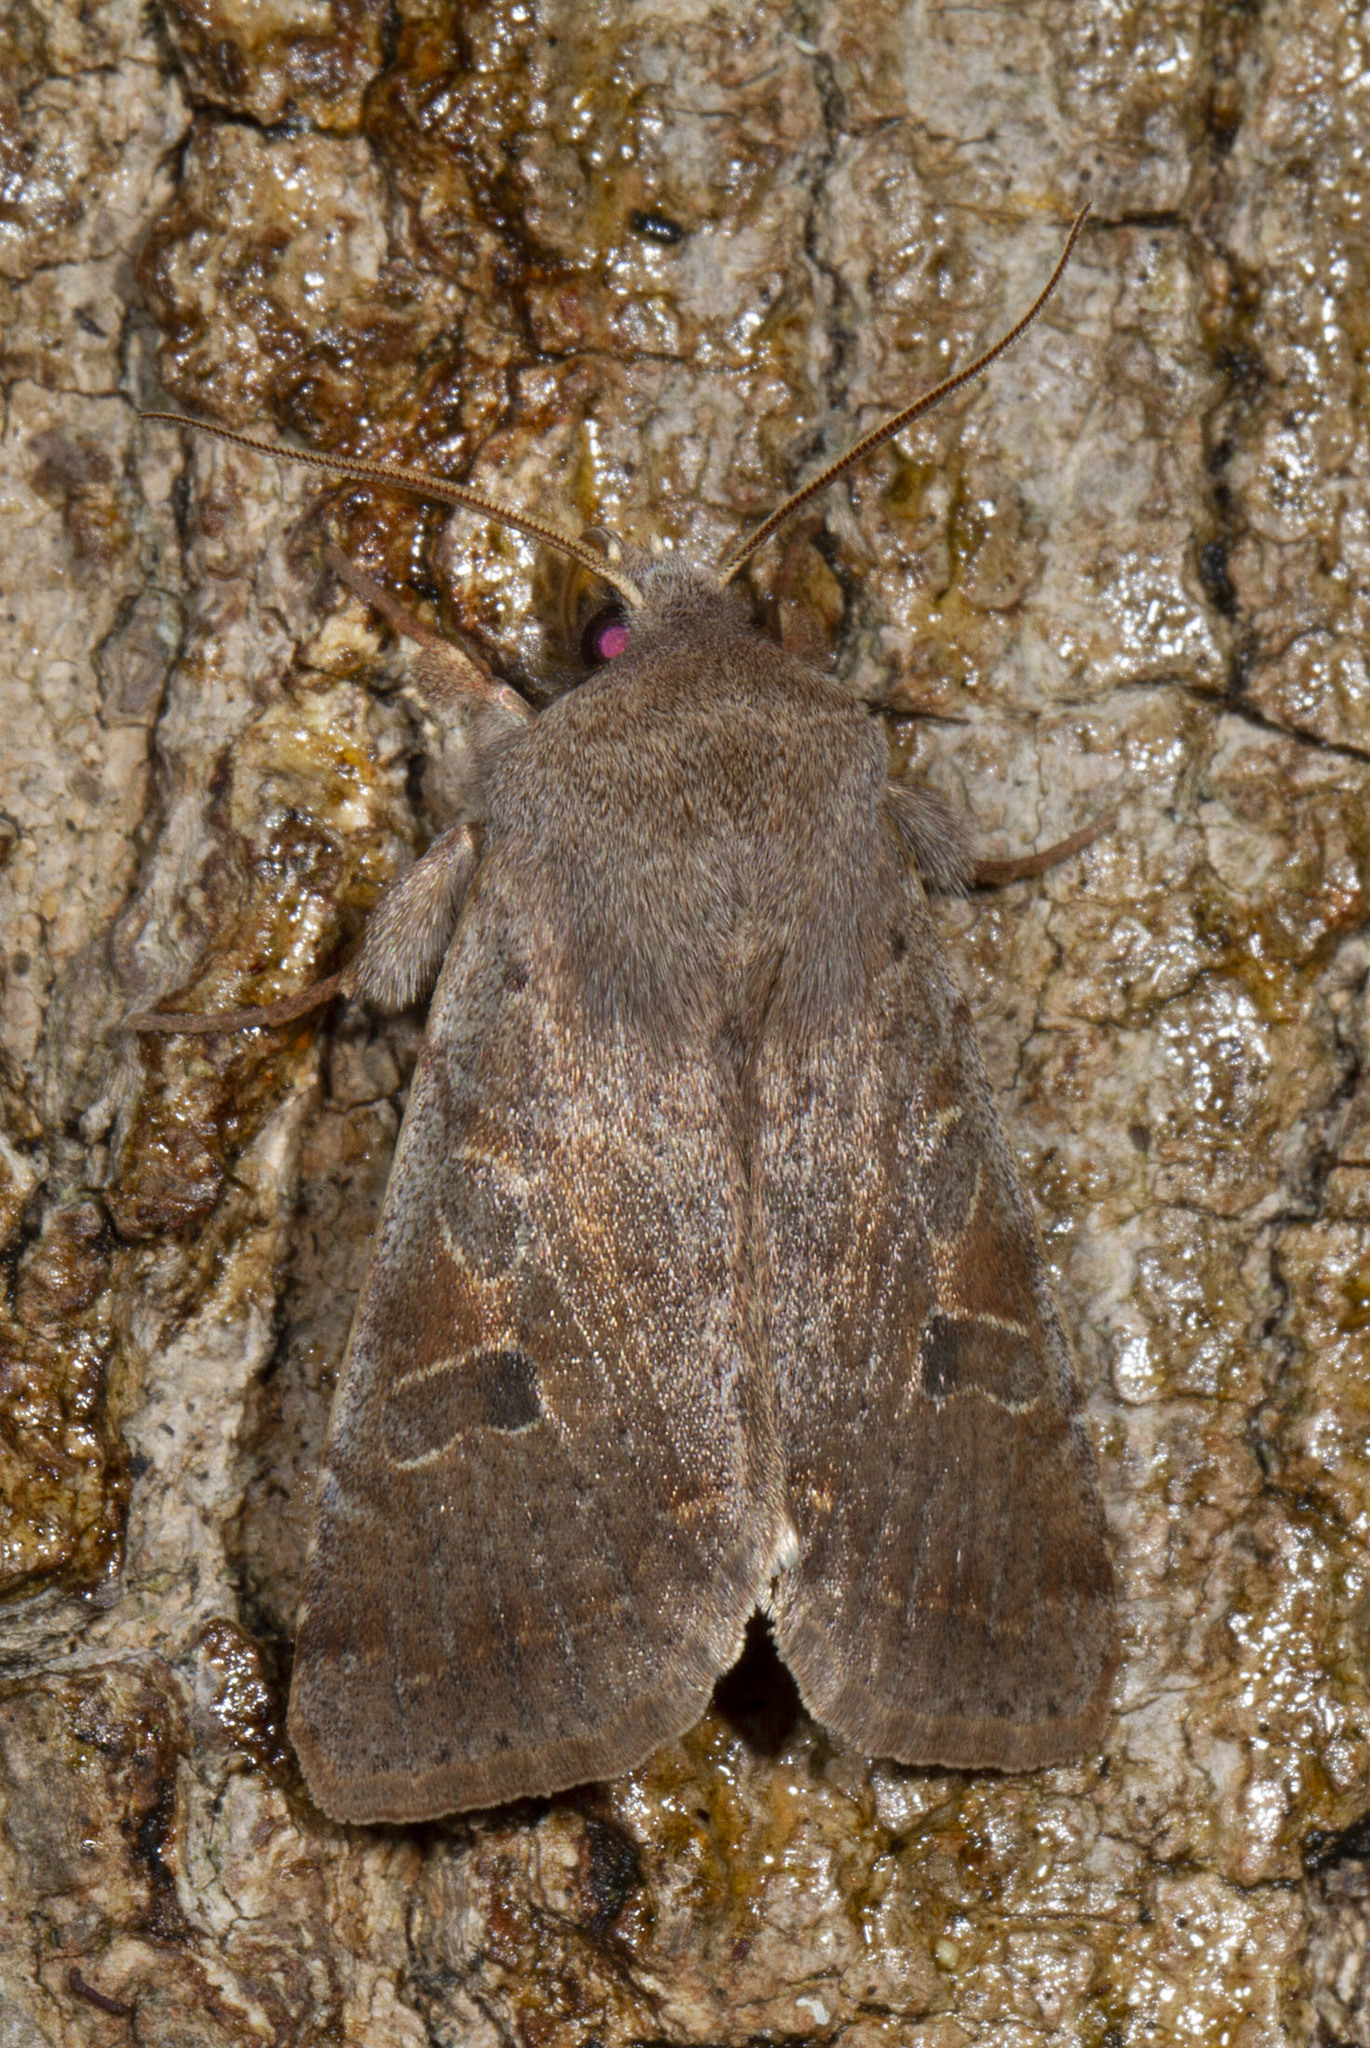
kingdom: Animalia
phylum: Arthropoda
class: Insecta
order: Lepidoptera
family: Noctuidae
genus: Orthosia
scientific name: Orthosia hibisci
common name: Green fruitworm
